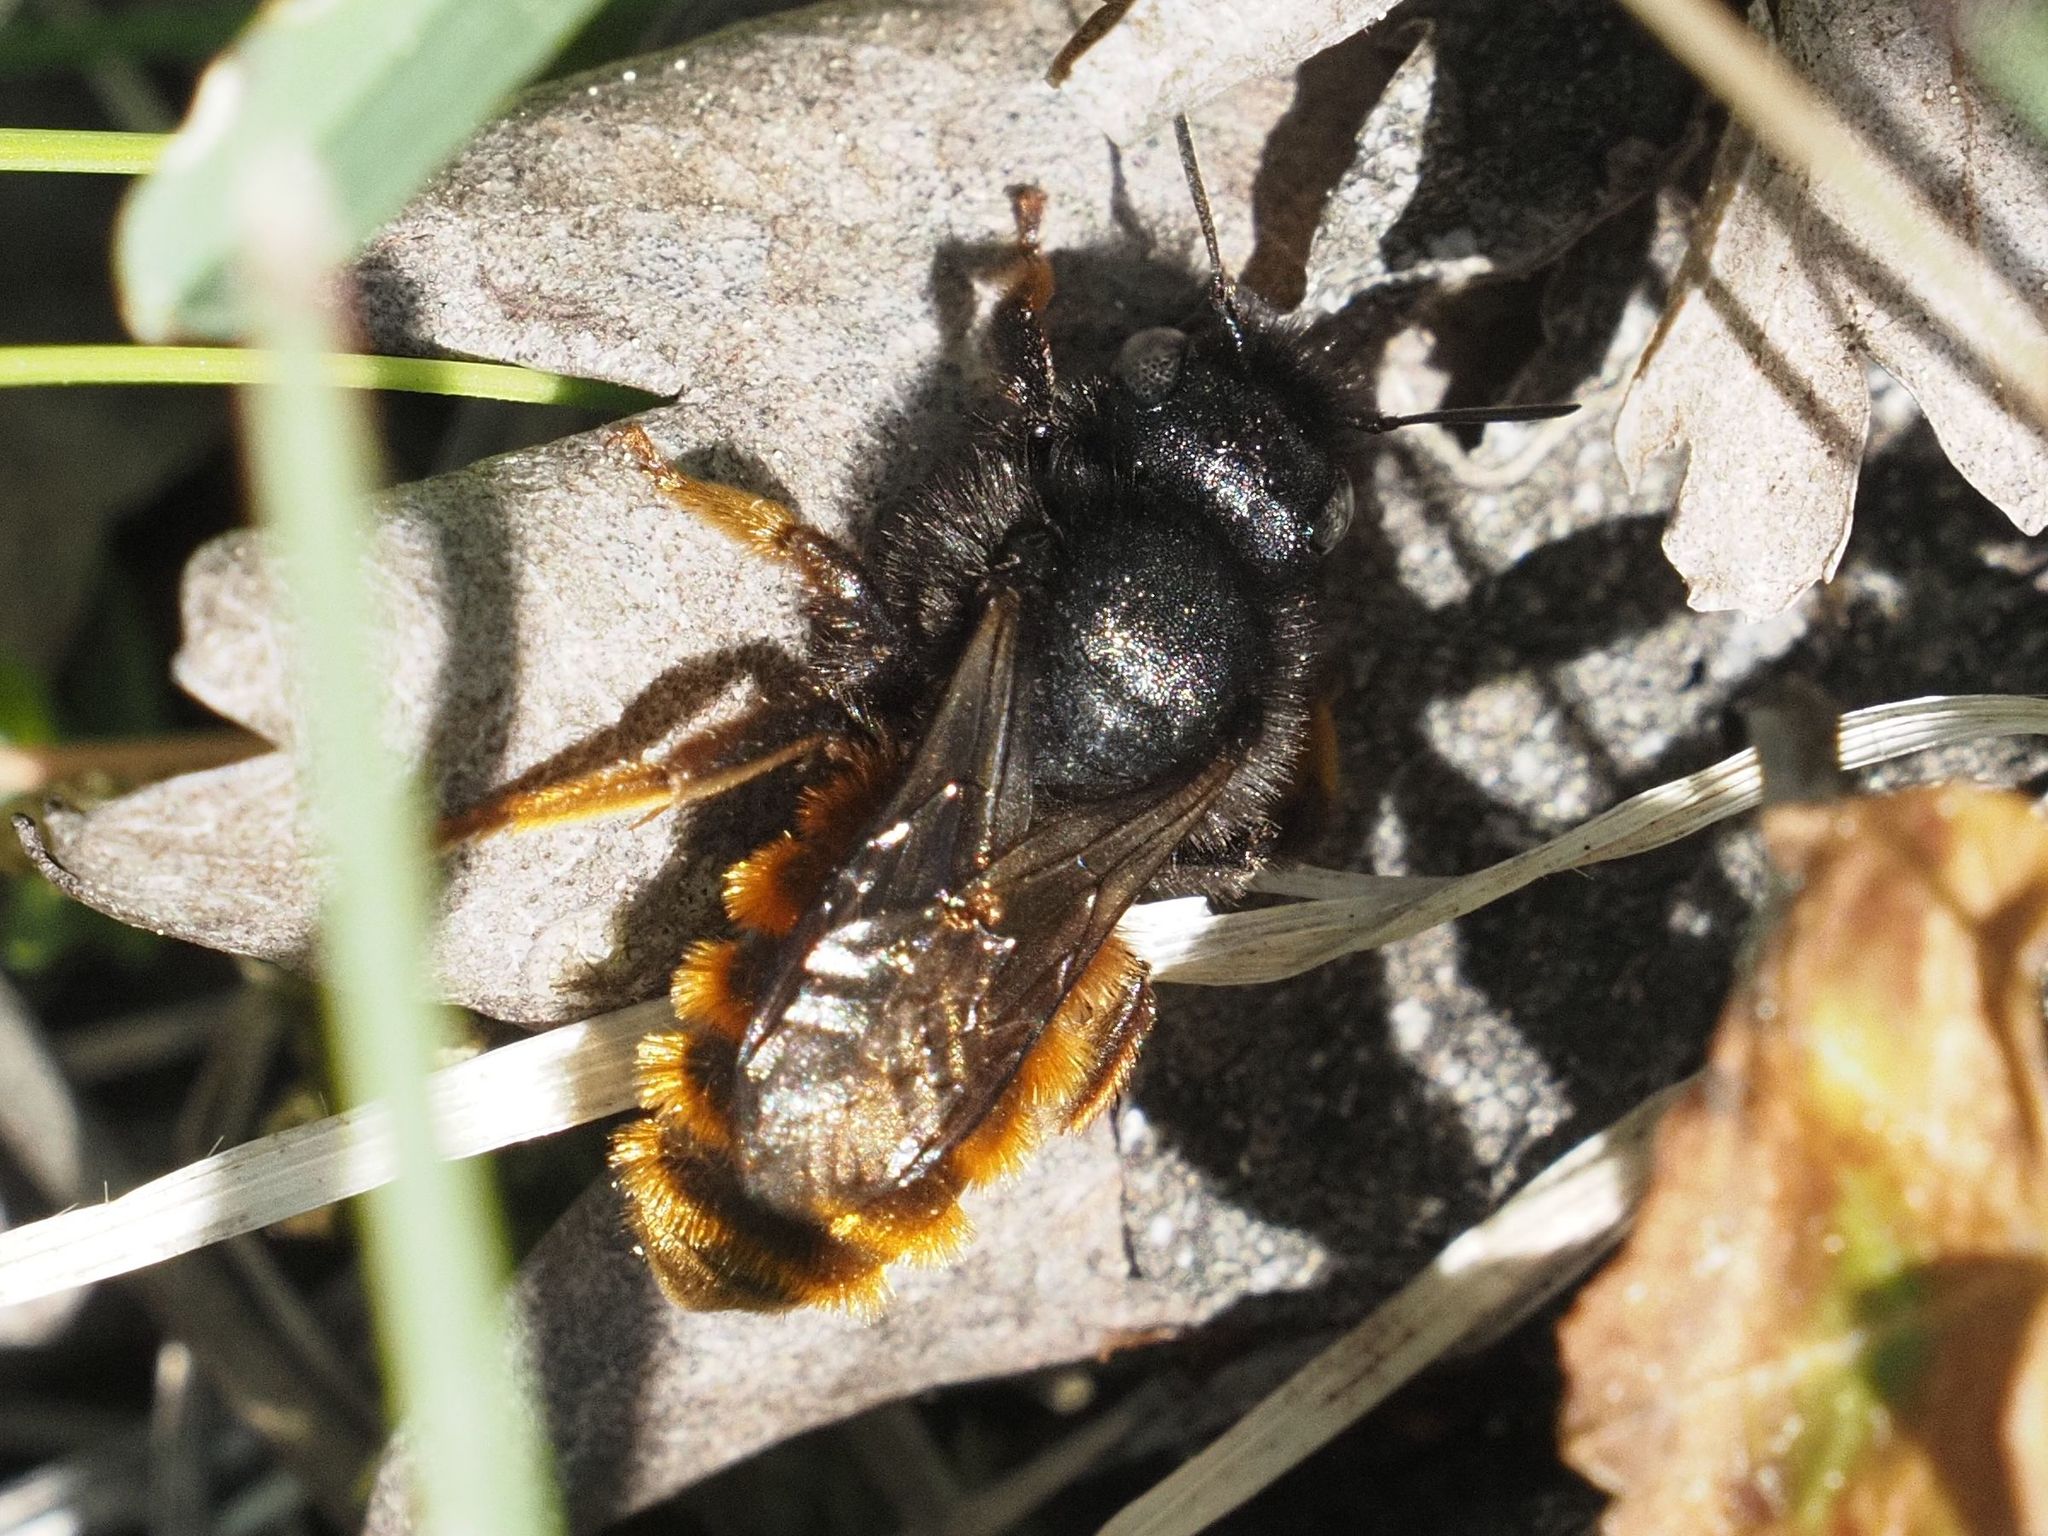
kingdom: Animalia
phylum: Arthropoda
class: Insecta
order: Hymenoptera
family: Megachilidae
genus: Osmia
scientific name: Osmia bicolor
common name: Red-tailed mason bee
